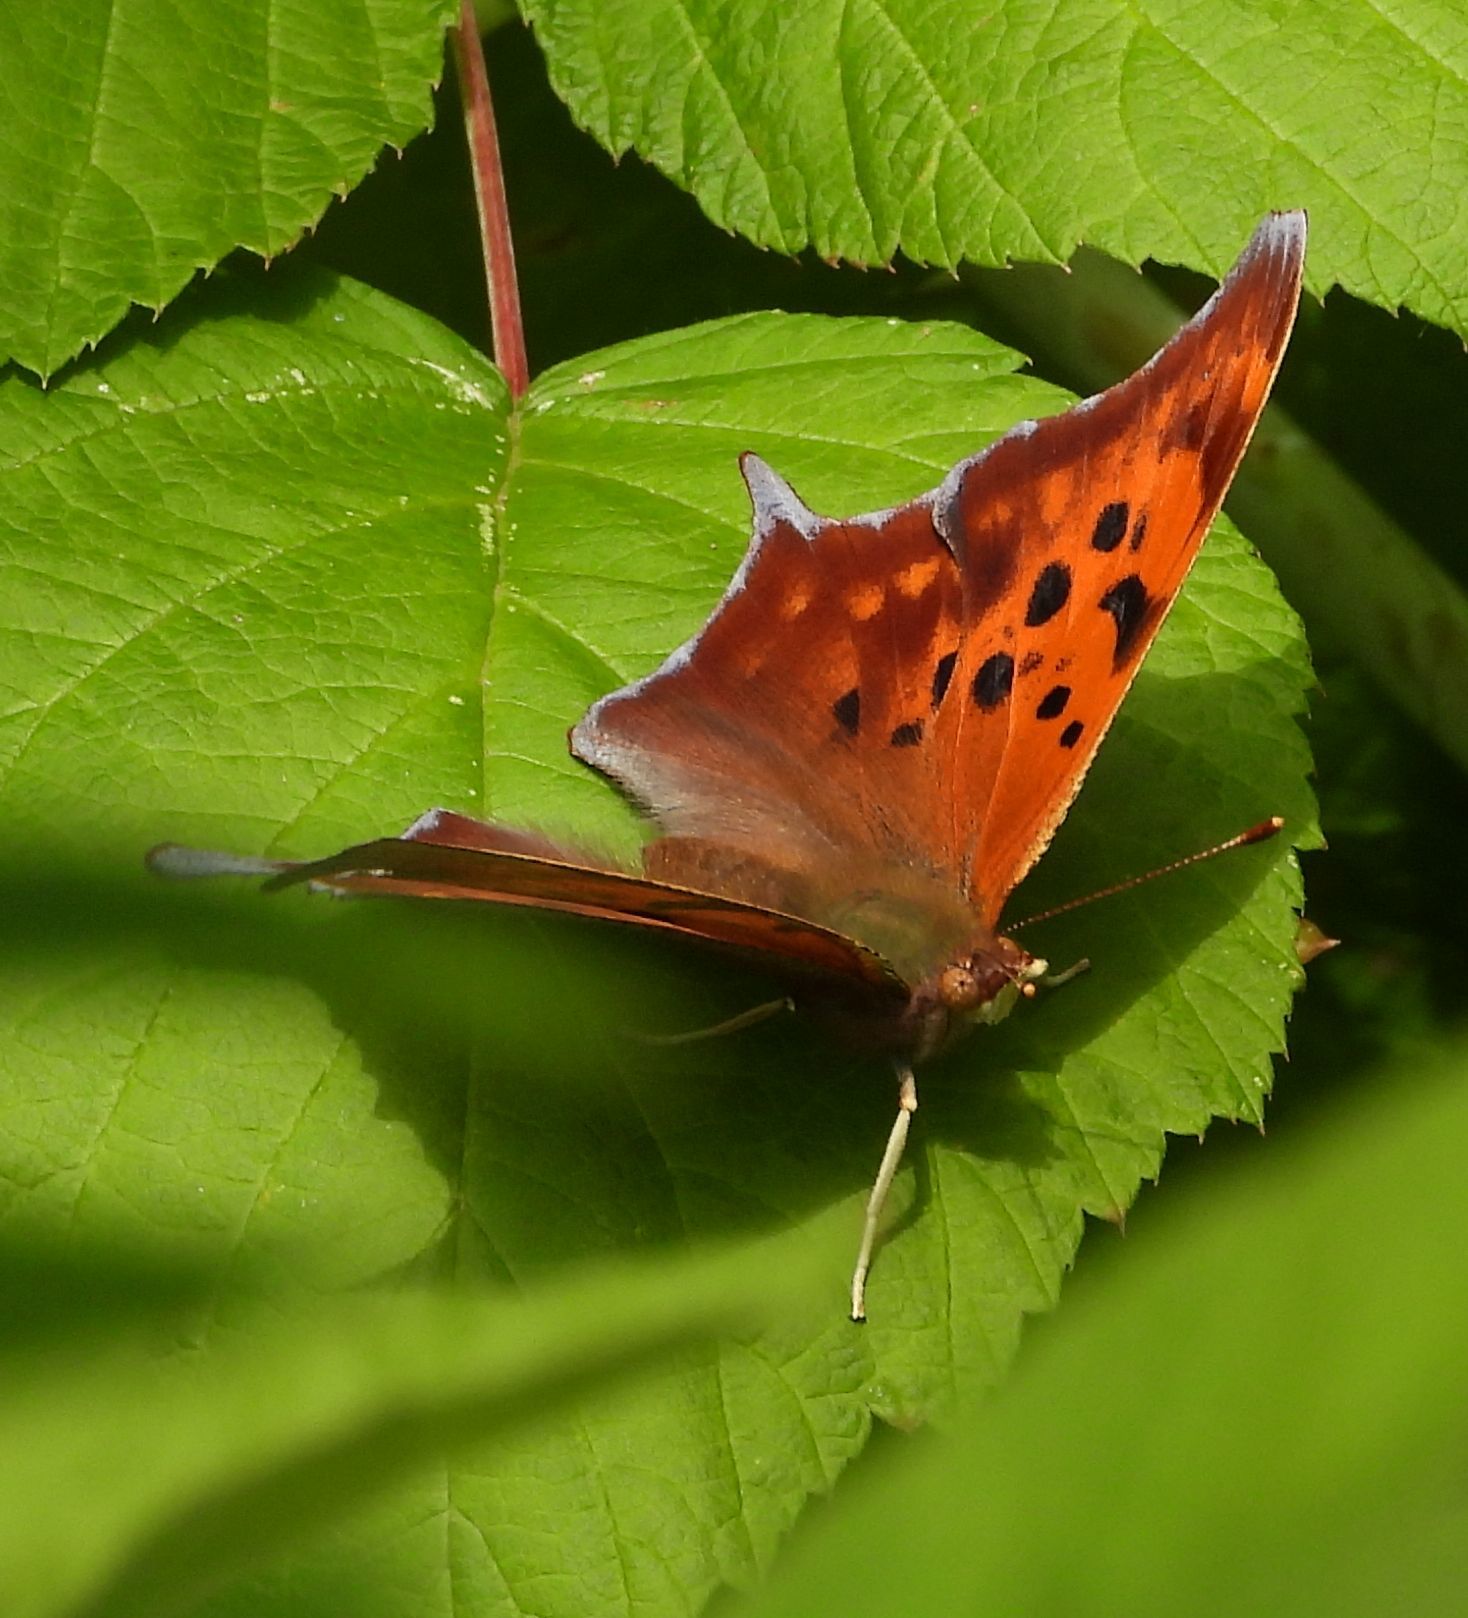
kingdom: Animalia
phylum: Arthropoda
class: Insecta
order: Lepidoptera
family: Nymphalidae
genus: Polygonia
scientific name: Polygonia interrogationis
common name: Question mark
